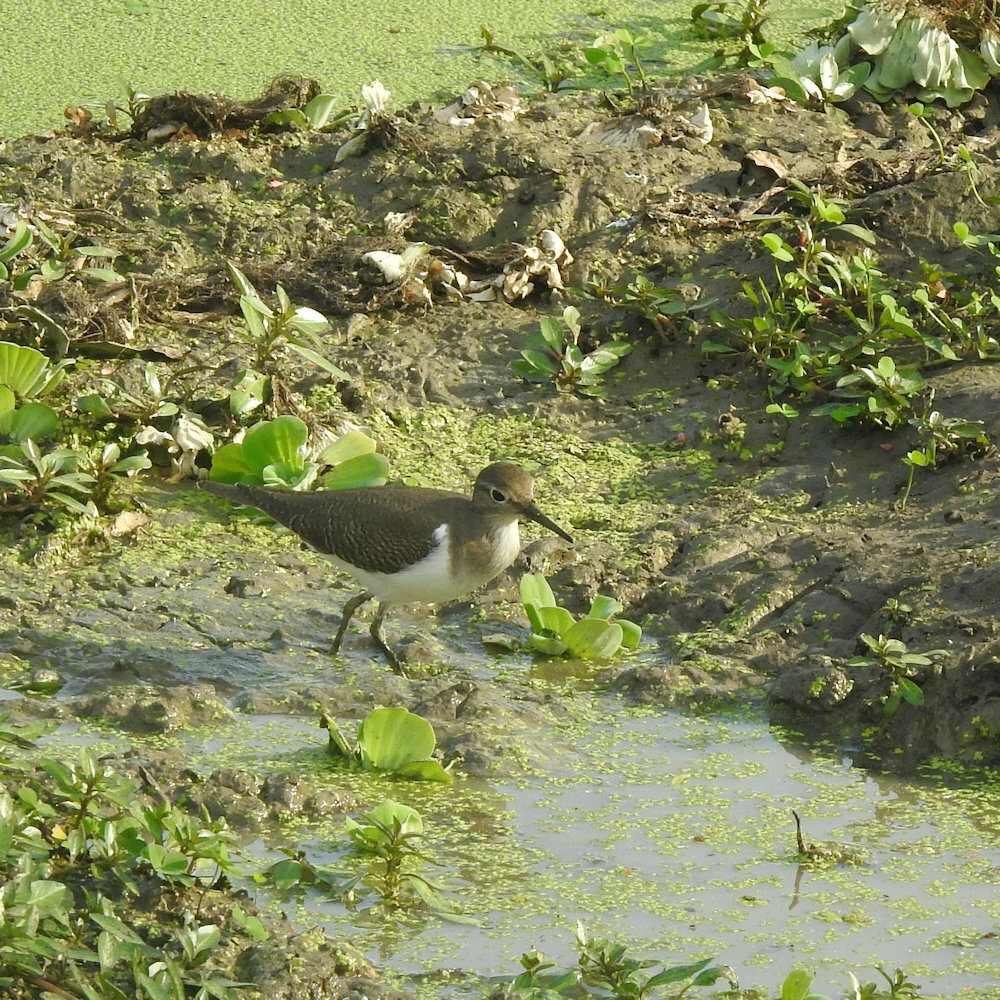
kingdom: Animalia
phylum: Chordata
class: Aves
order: Charadriiformes
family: Scolopacidae
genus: Actitis
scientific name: Actitis hypoleucos
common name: Common sandpiper
